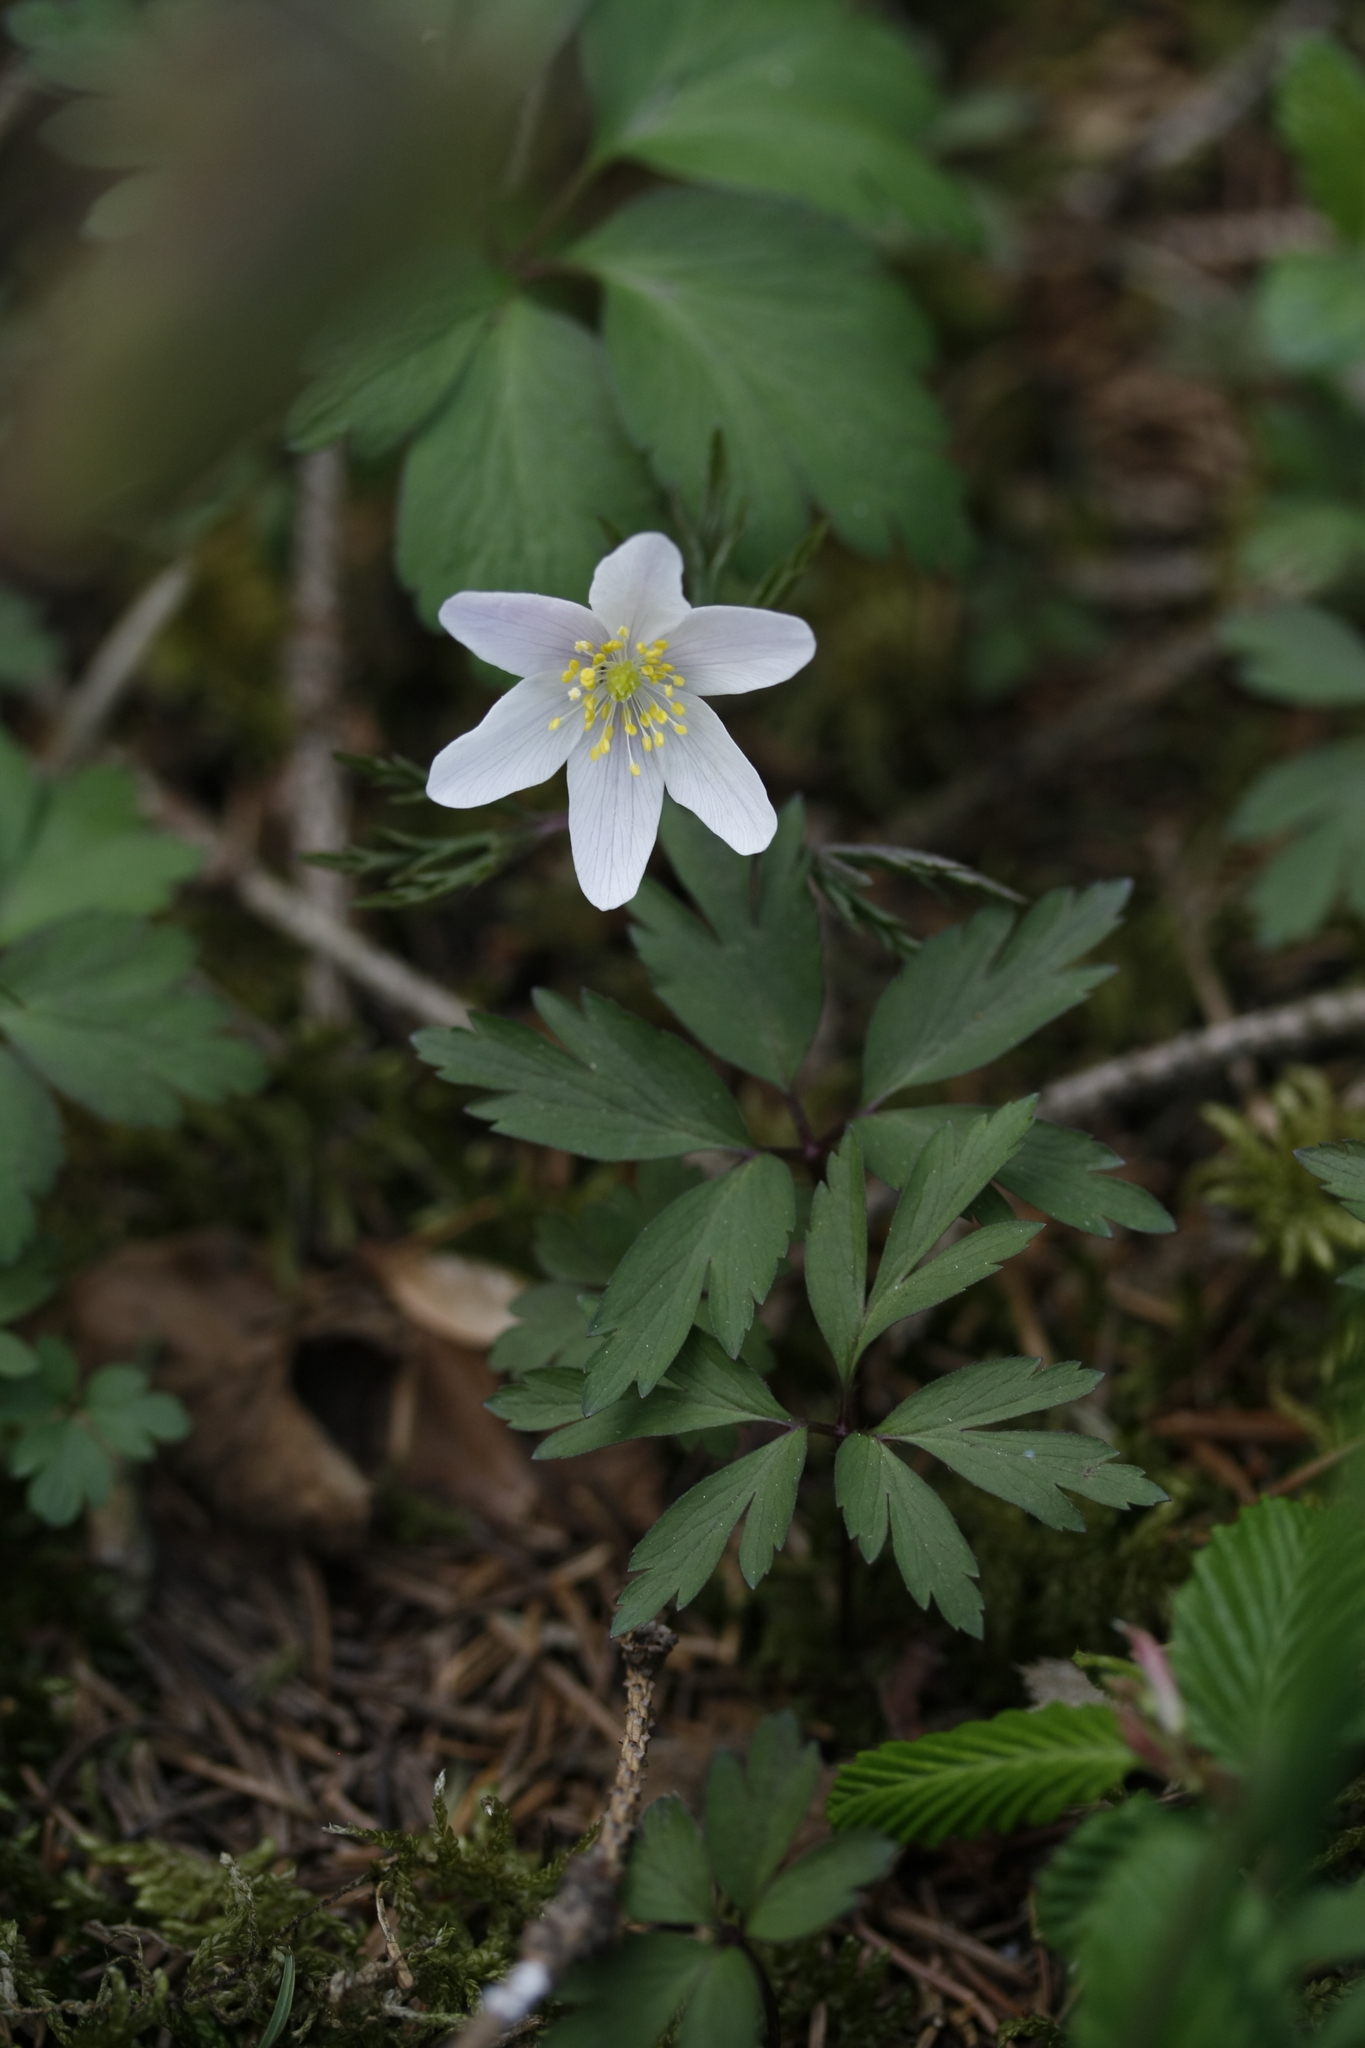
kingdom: Plantae
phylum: Tracheophyta
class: Magnoliopsida
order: Ranunculales
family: Ranunculaceae
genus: Anemone
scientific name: Anemone nemorosa
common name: Wood anemone
